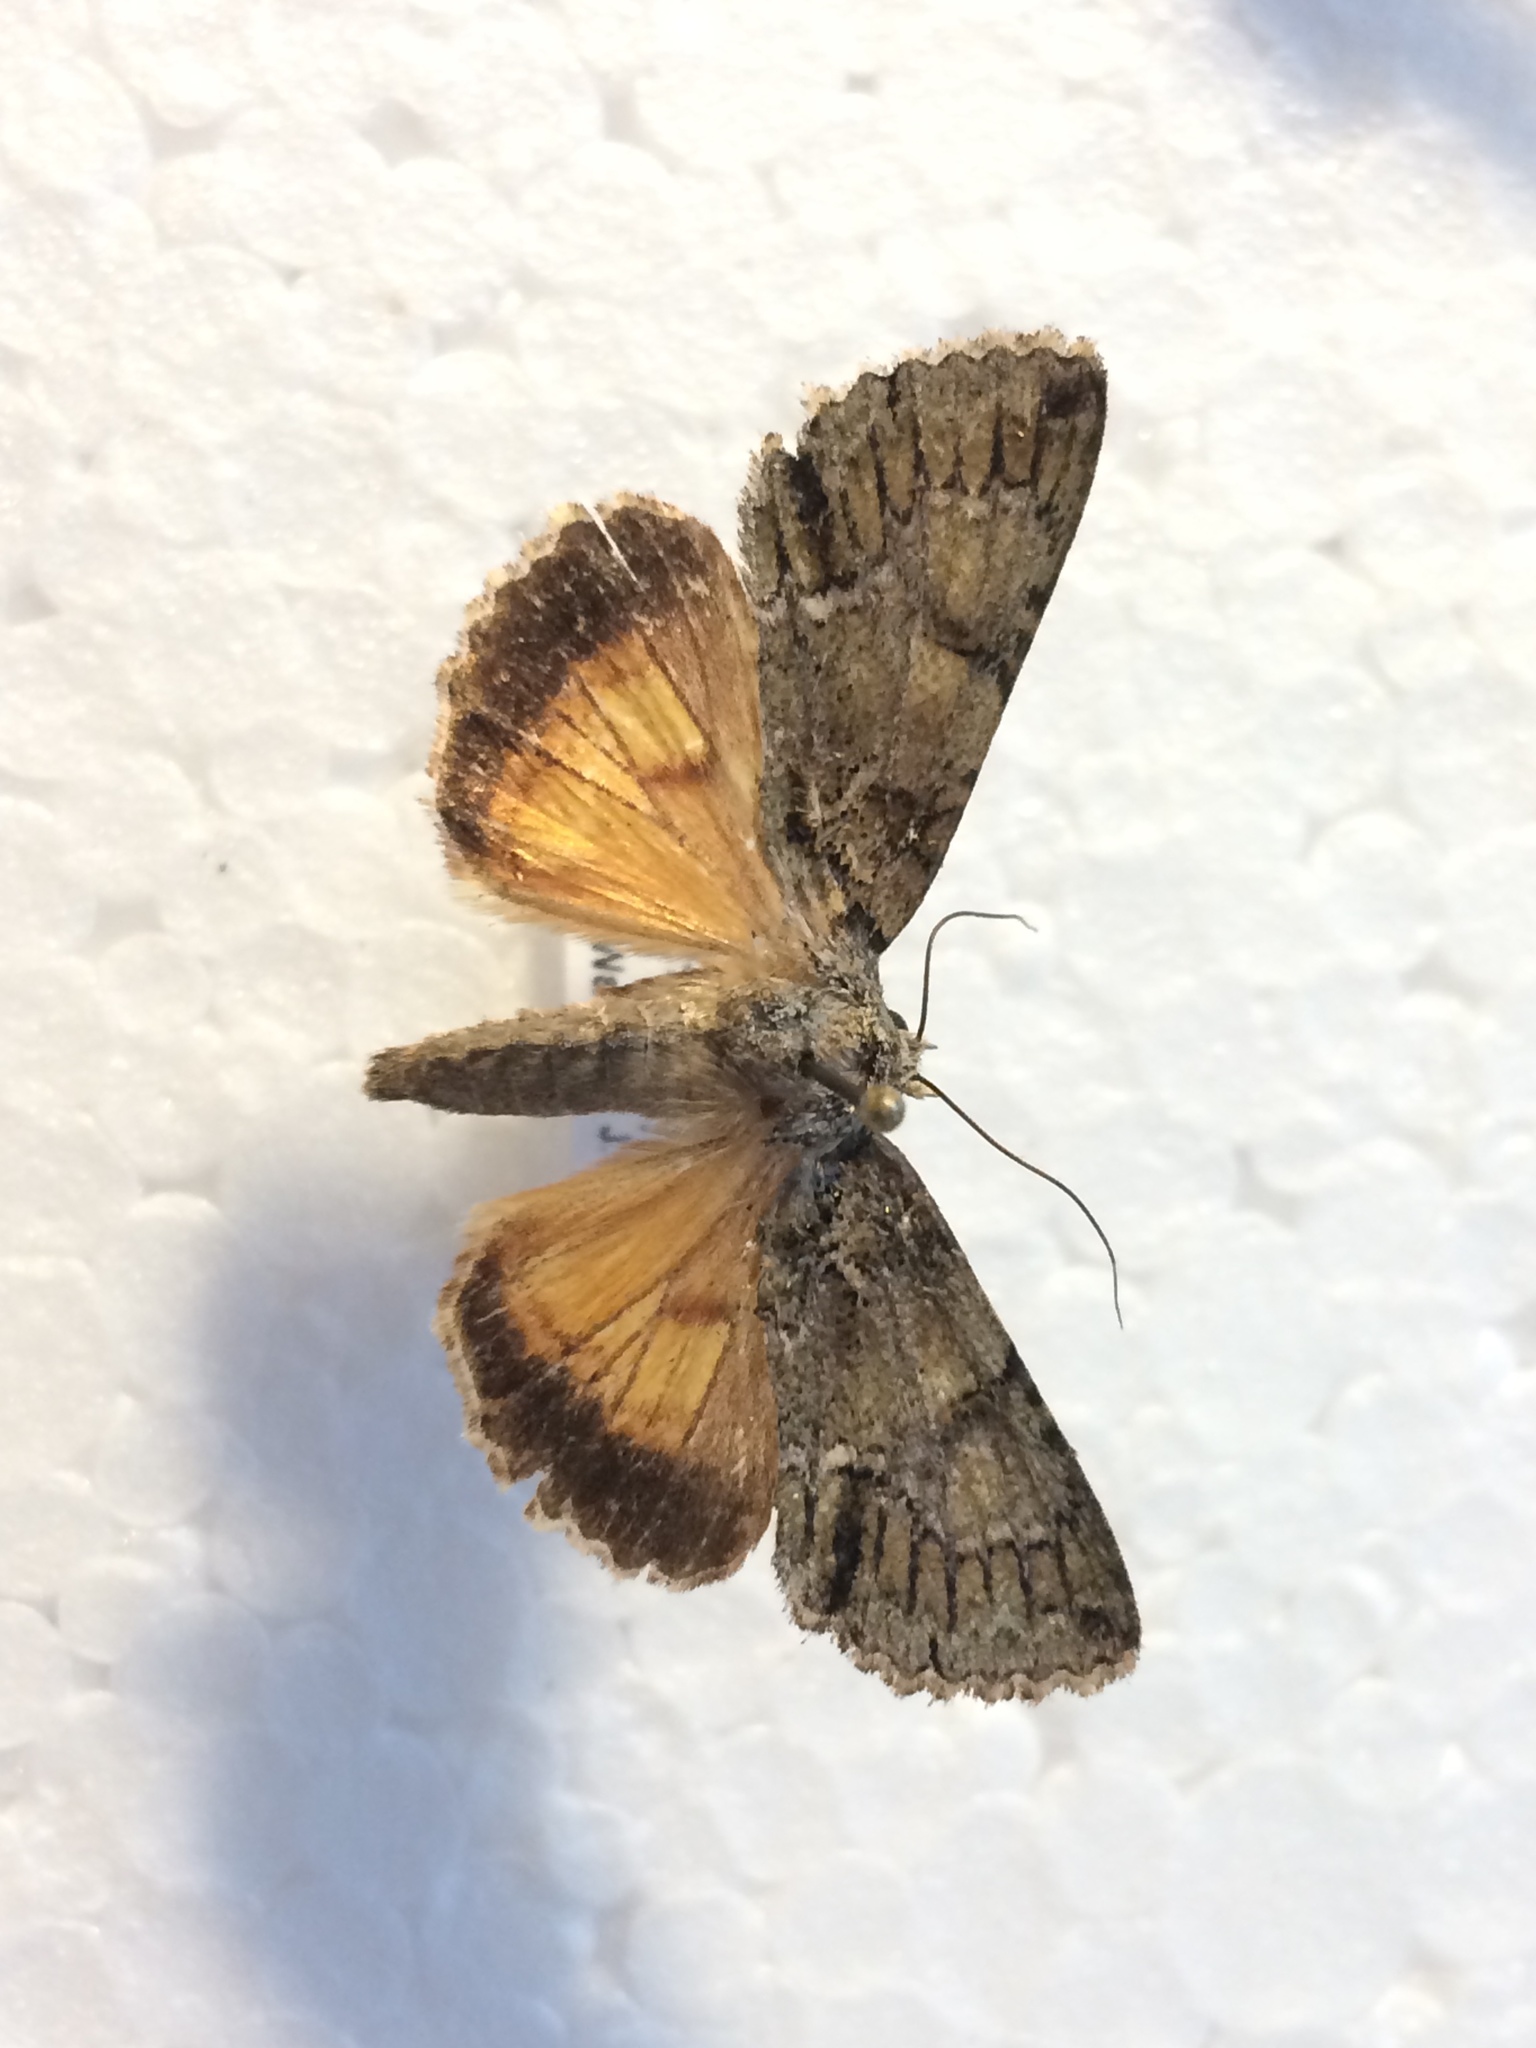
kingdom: Animalia
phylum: Arthropoda
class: Insecta
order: Lepidoptera
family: Noctuidae
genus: Polyphaenis
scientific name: Polyphaenis sericata
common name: Guernsey underwing
